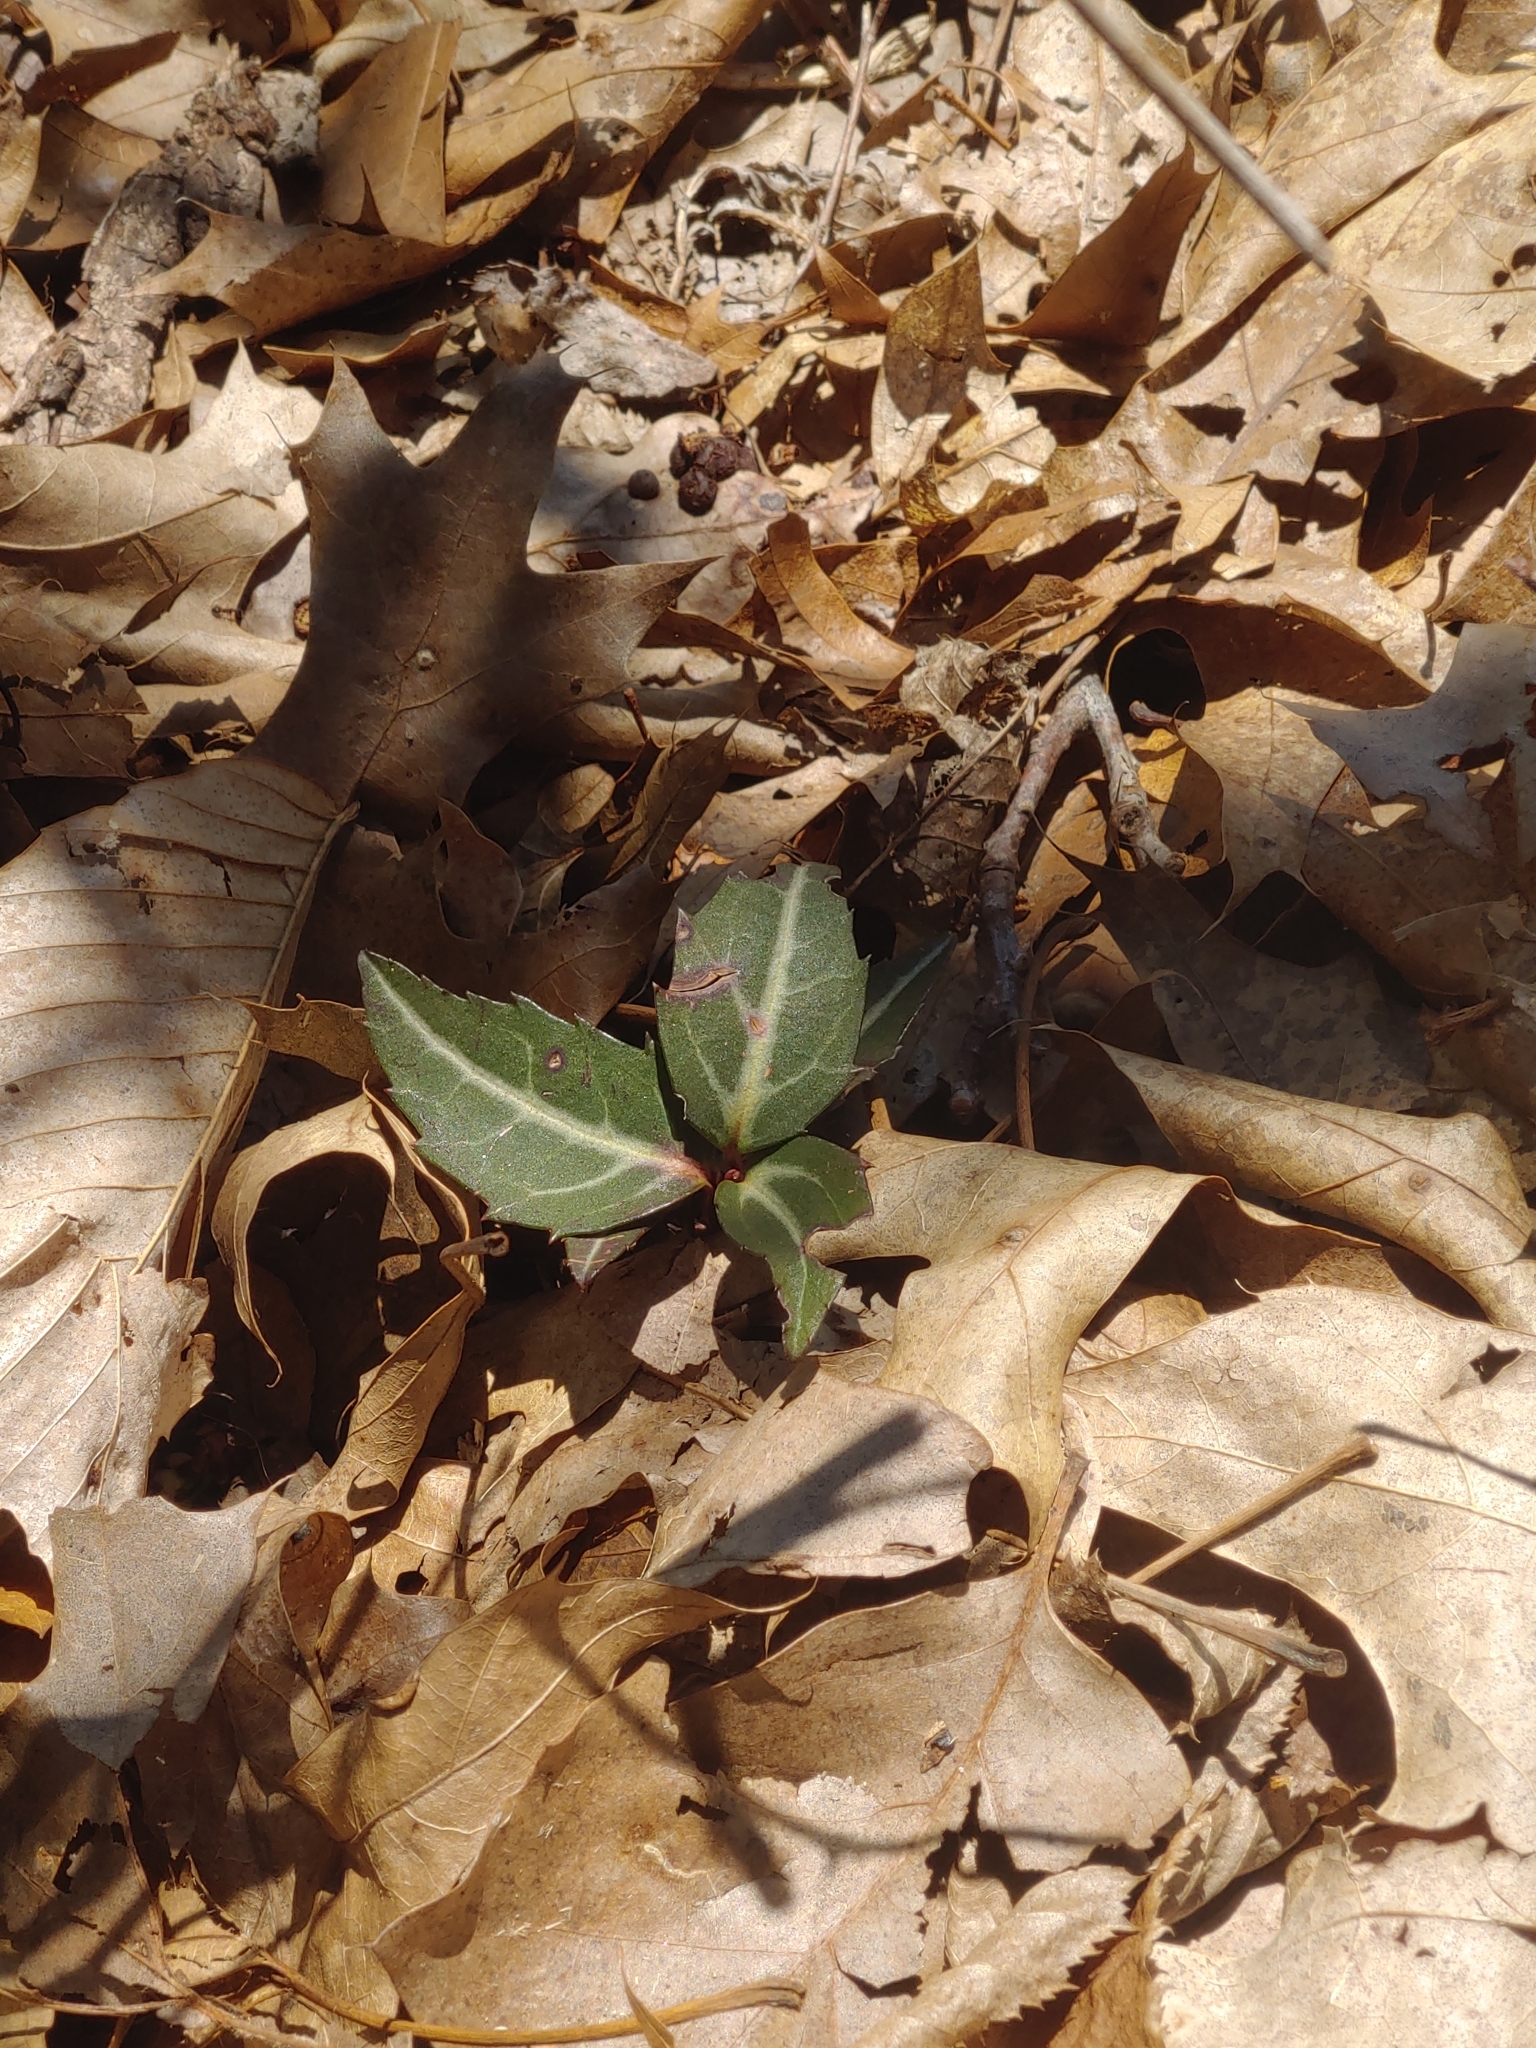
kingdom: Plantae
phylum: Tracheophyta
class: Magnoliopsida
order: Ericales
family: Ericaceae
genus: Chimaphila
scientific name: Chimaphila maculata
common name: Spotted pipsissewa
